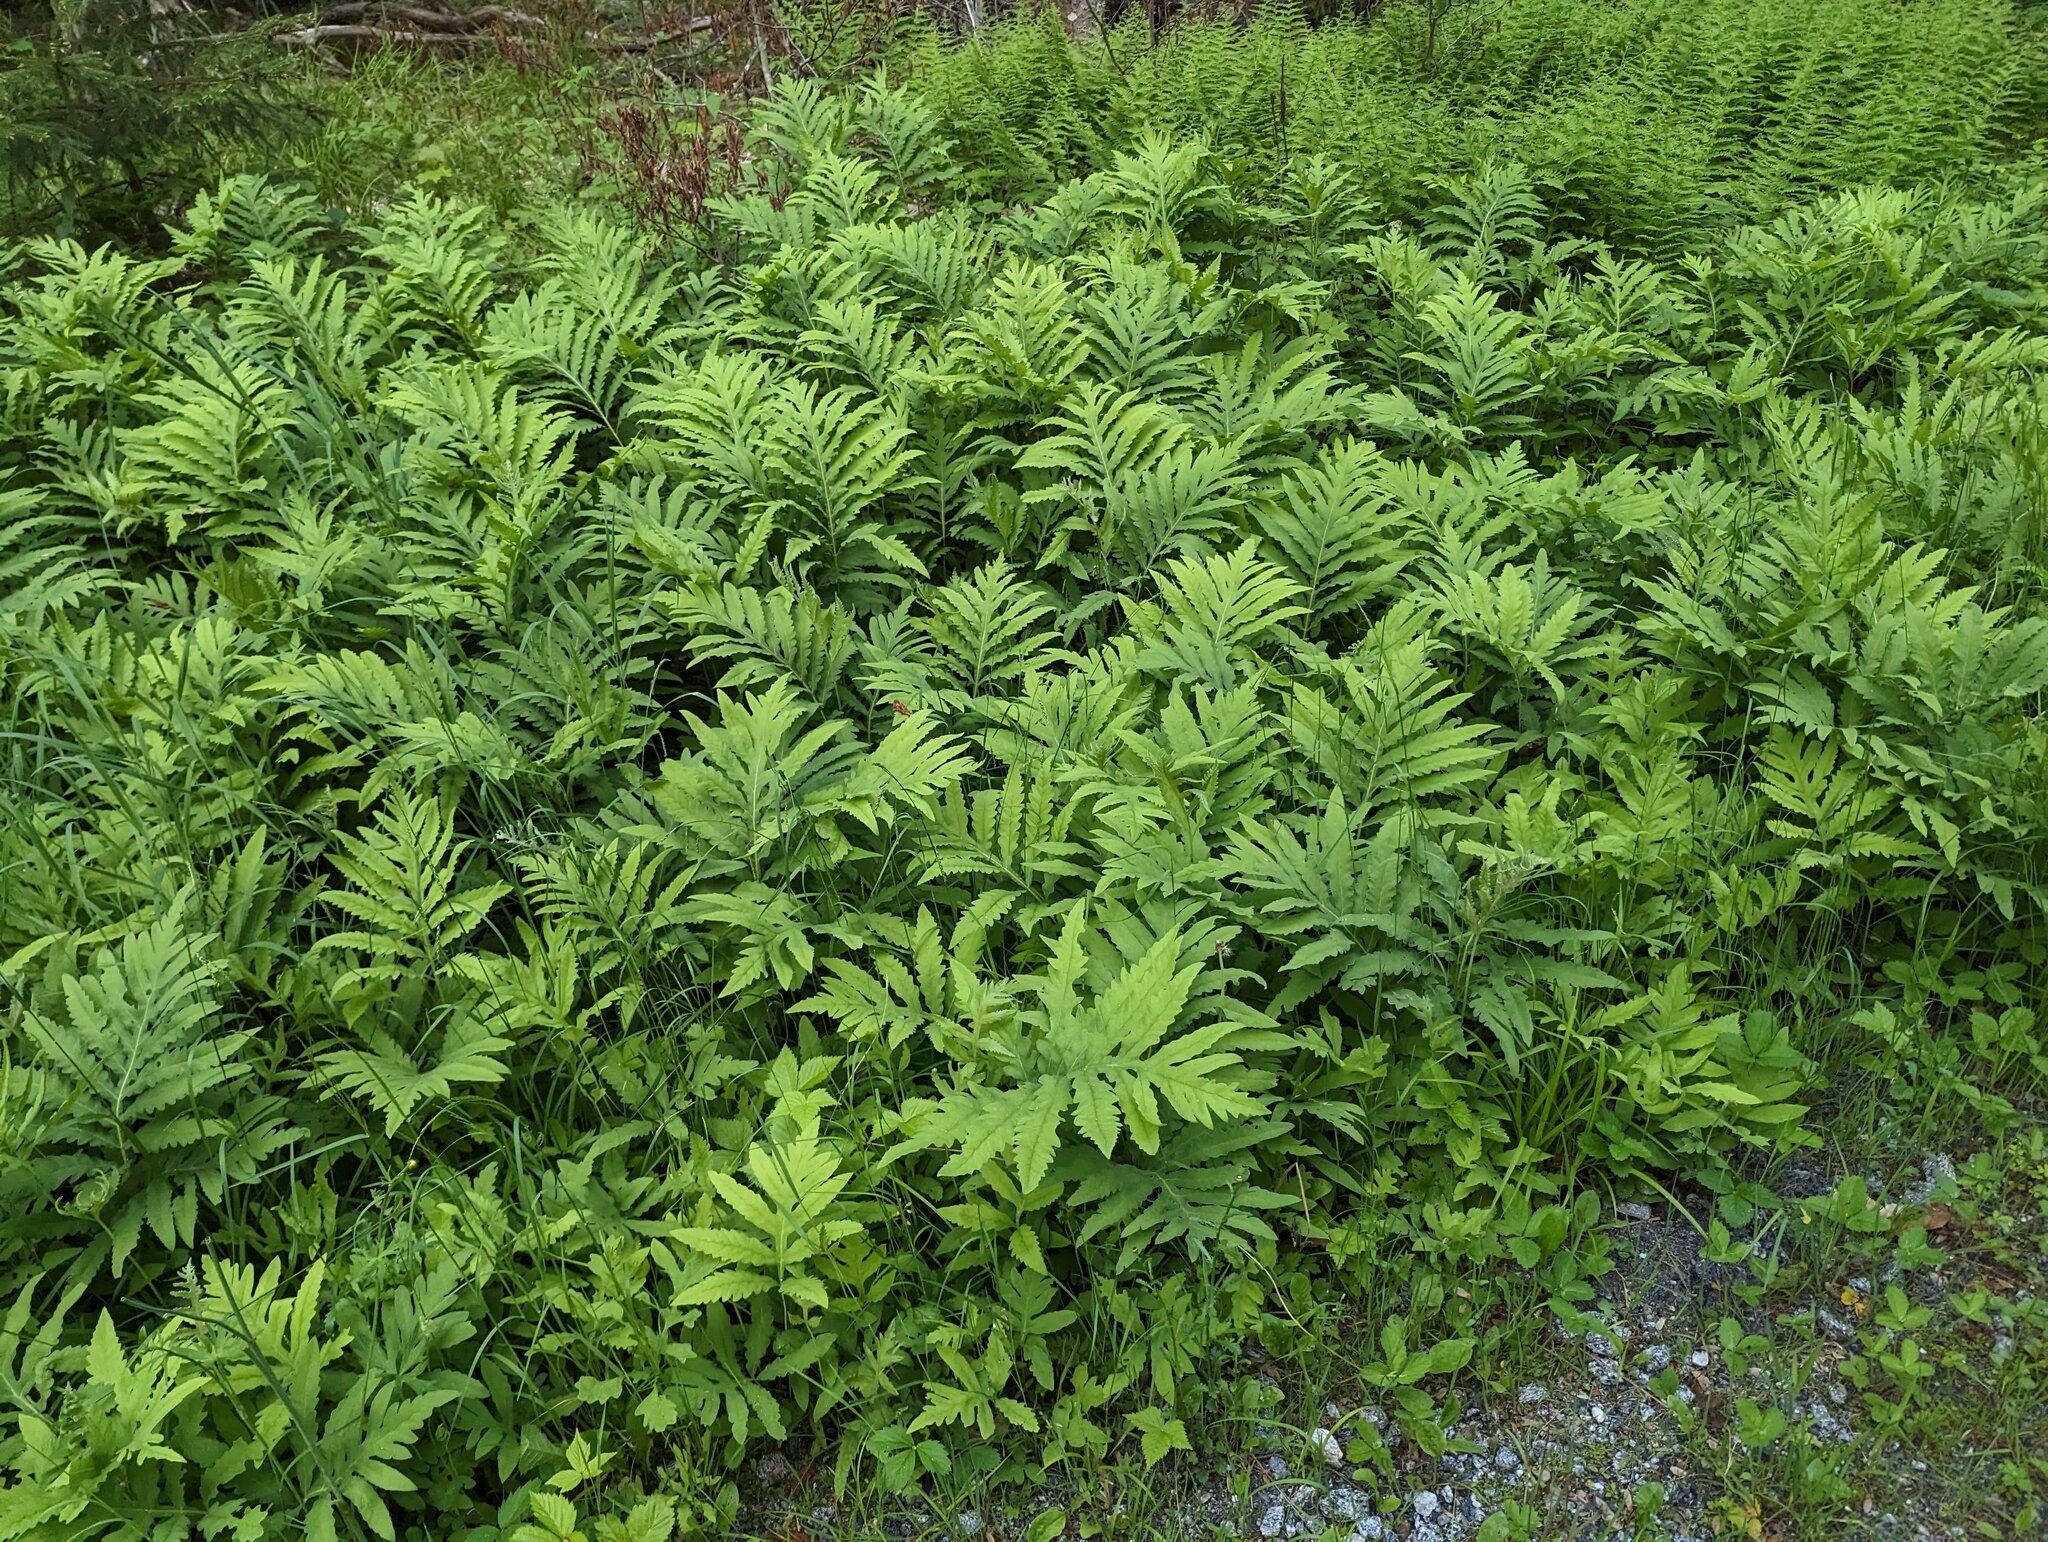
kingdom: Plantae
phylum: Tracheophyta
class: Polypodiopsida
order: Polypodiales
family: Onocleaceae
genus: Onoclea
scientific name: Onoclea sensibilis
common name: Sensitive fern
